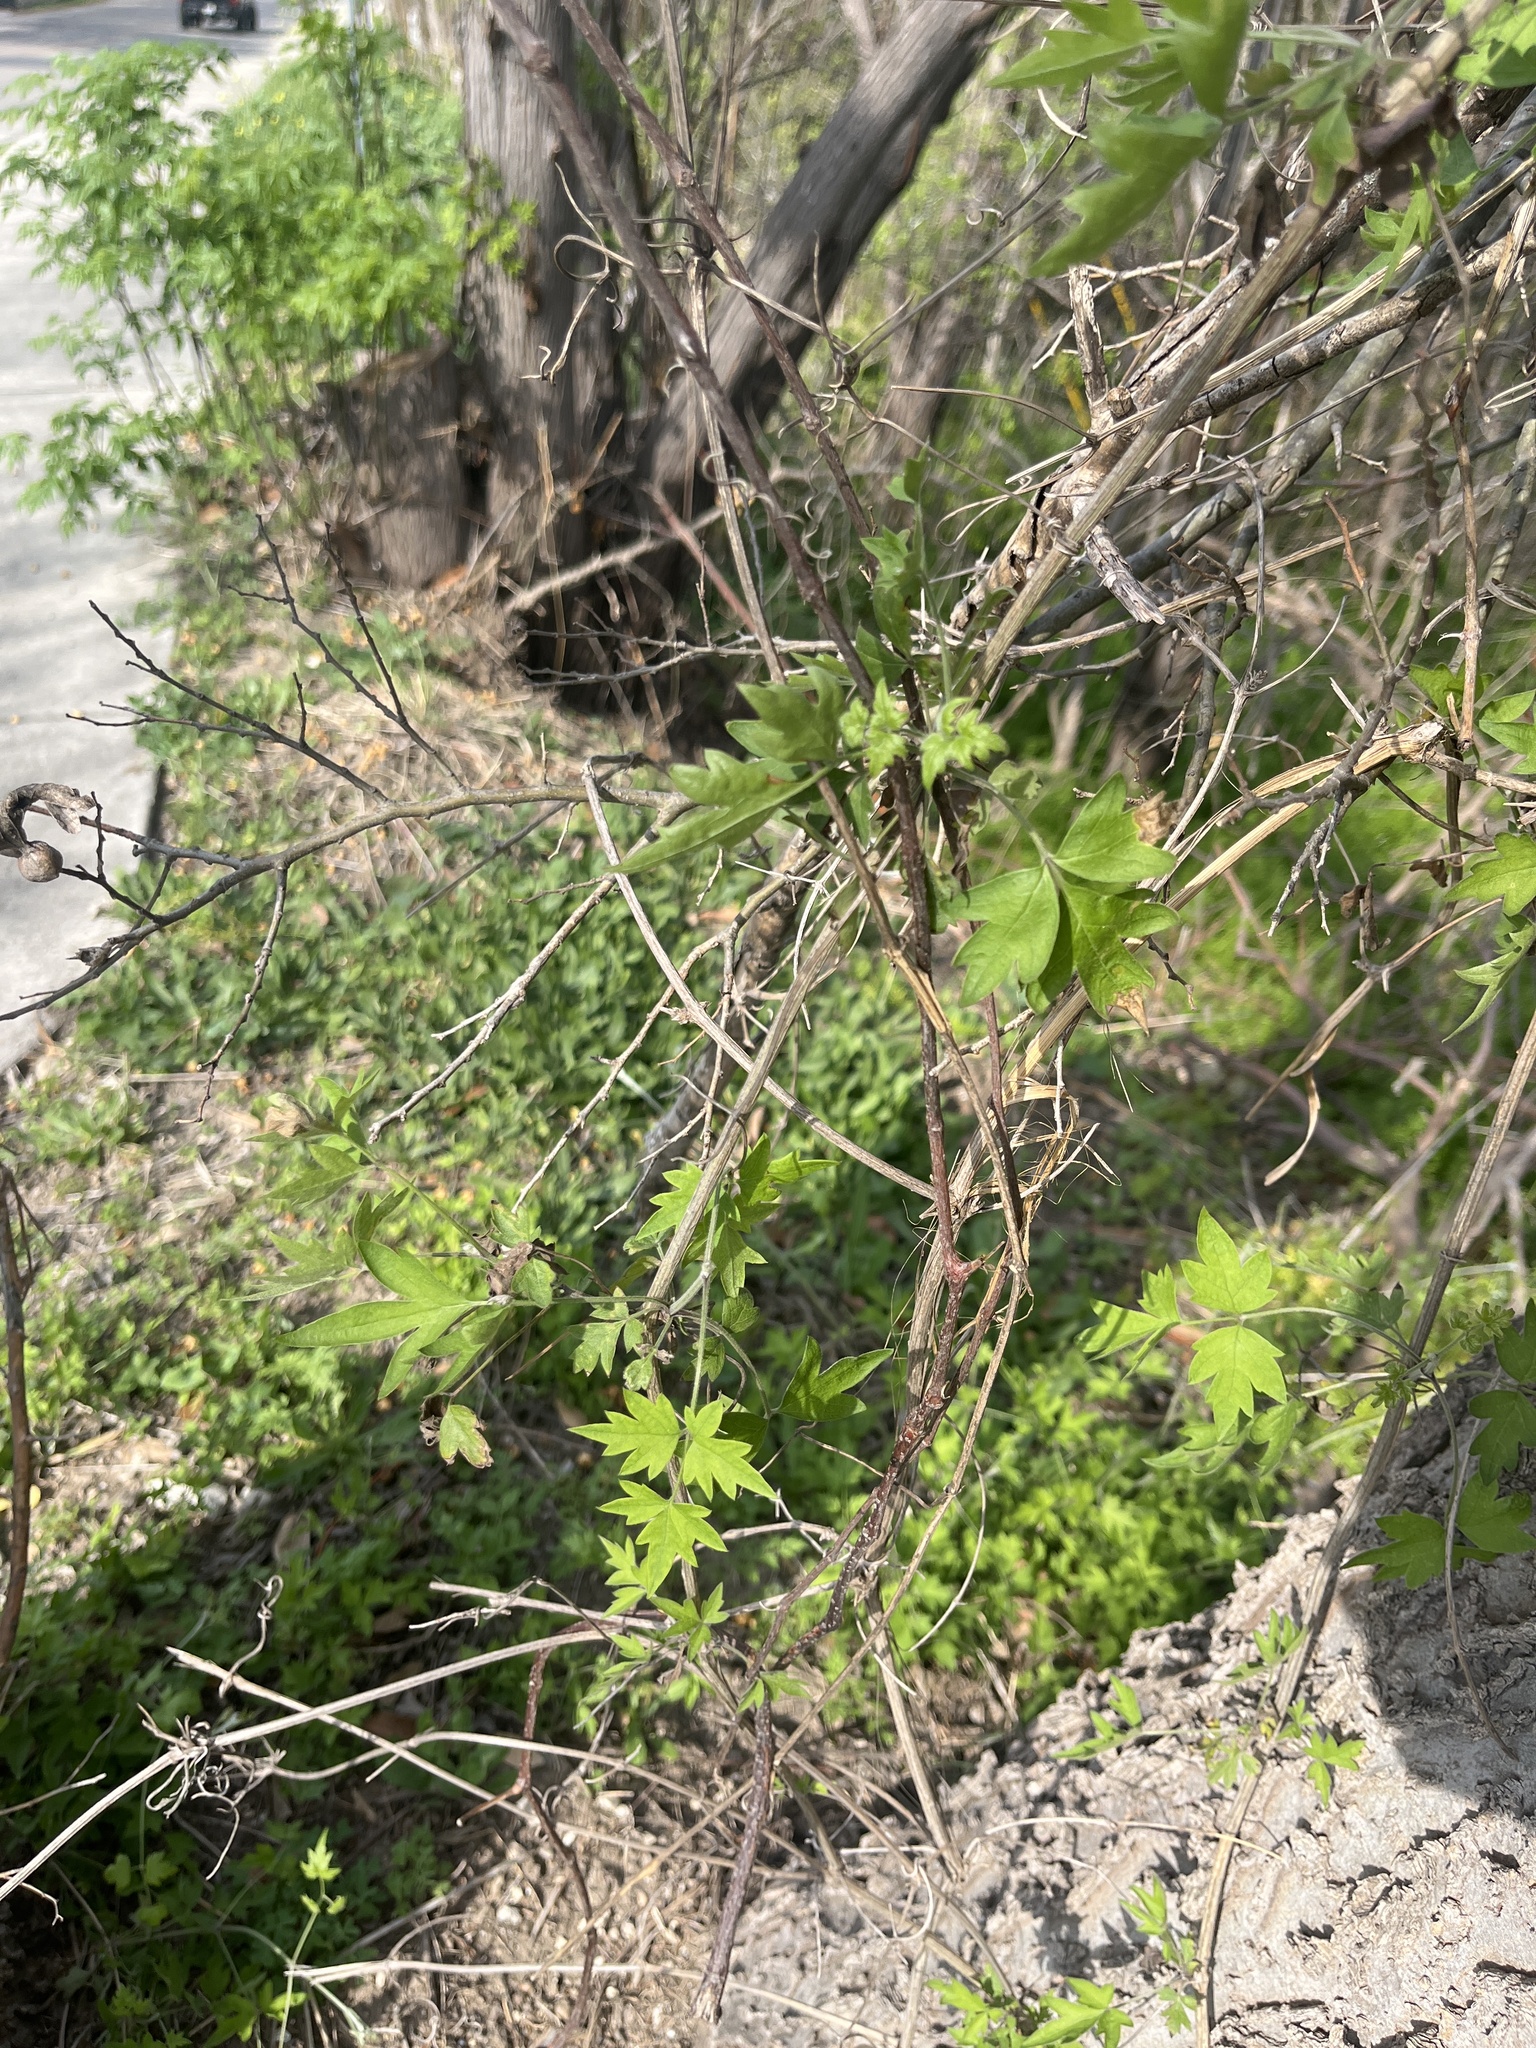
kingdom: Plantae
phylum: Tracheophyta
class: Magnoliopsida
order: Ranunculales
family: Ranunculaceae
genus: Clematis
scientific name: Clematis drummondii
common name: Texas virgin's bower
